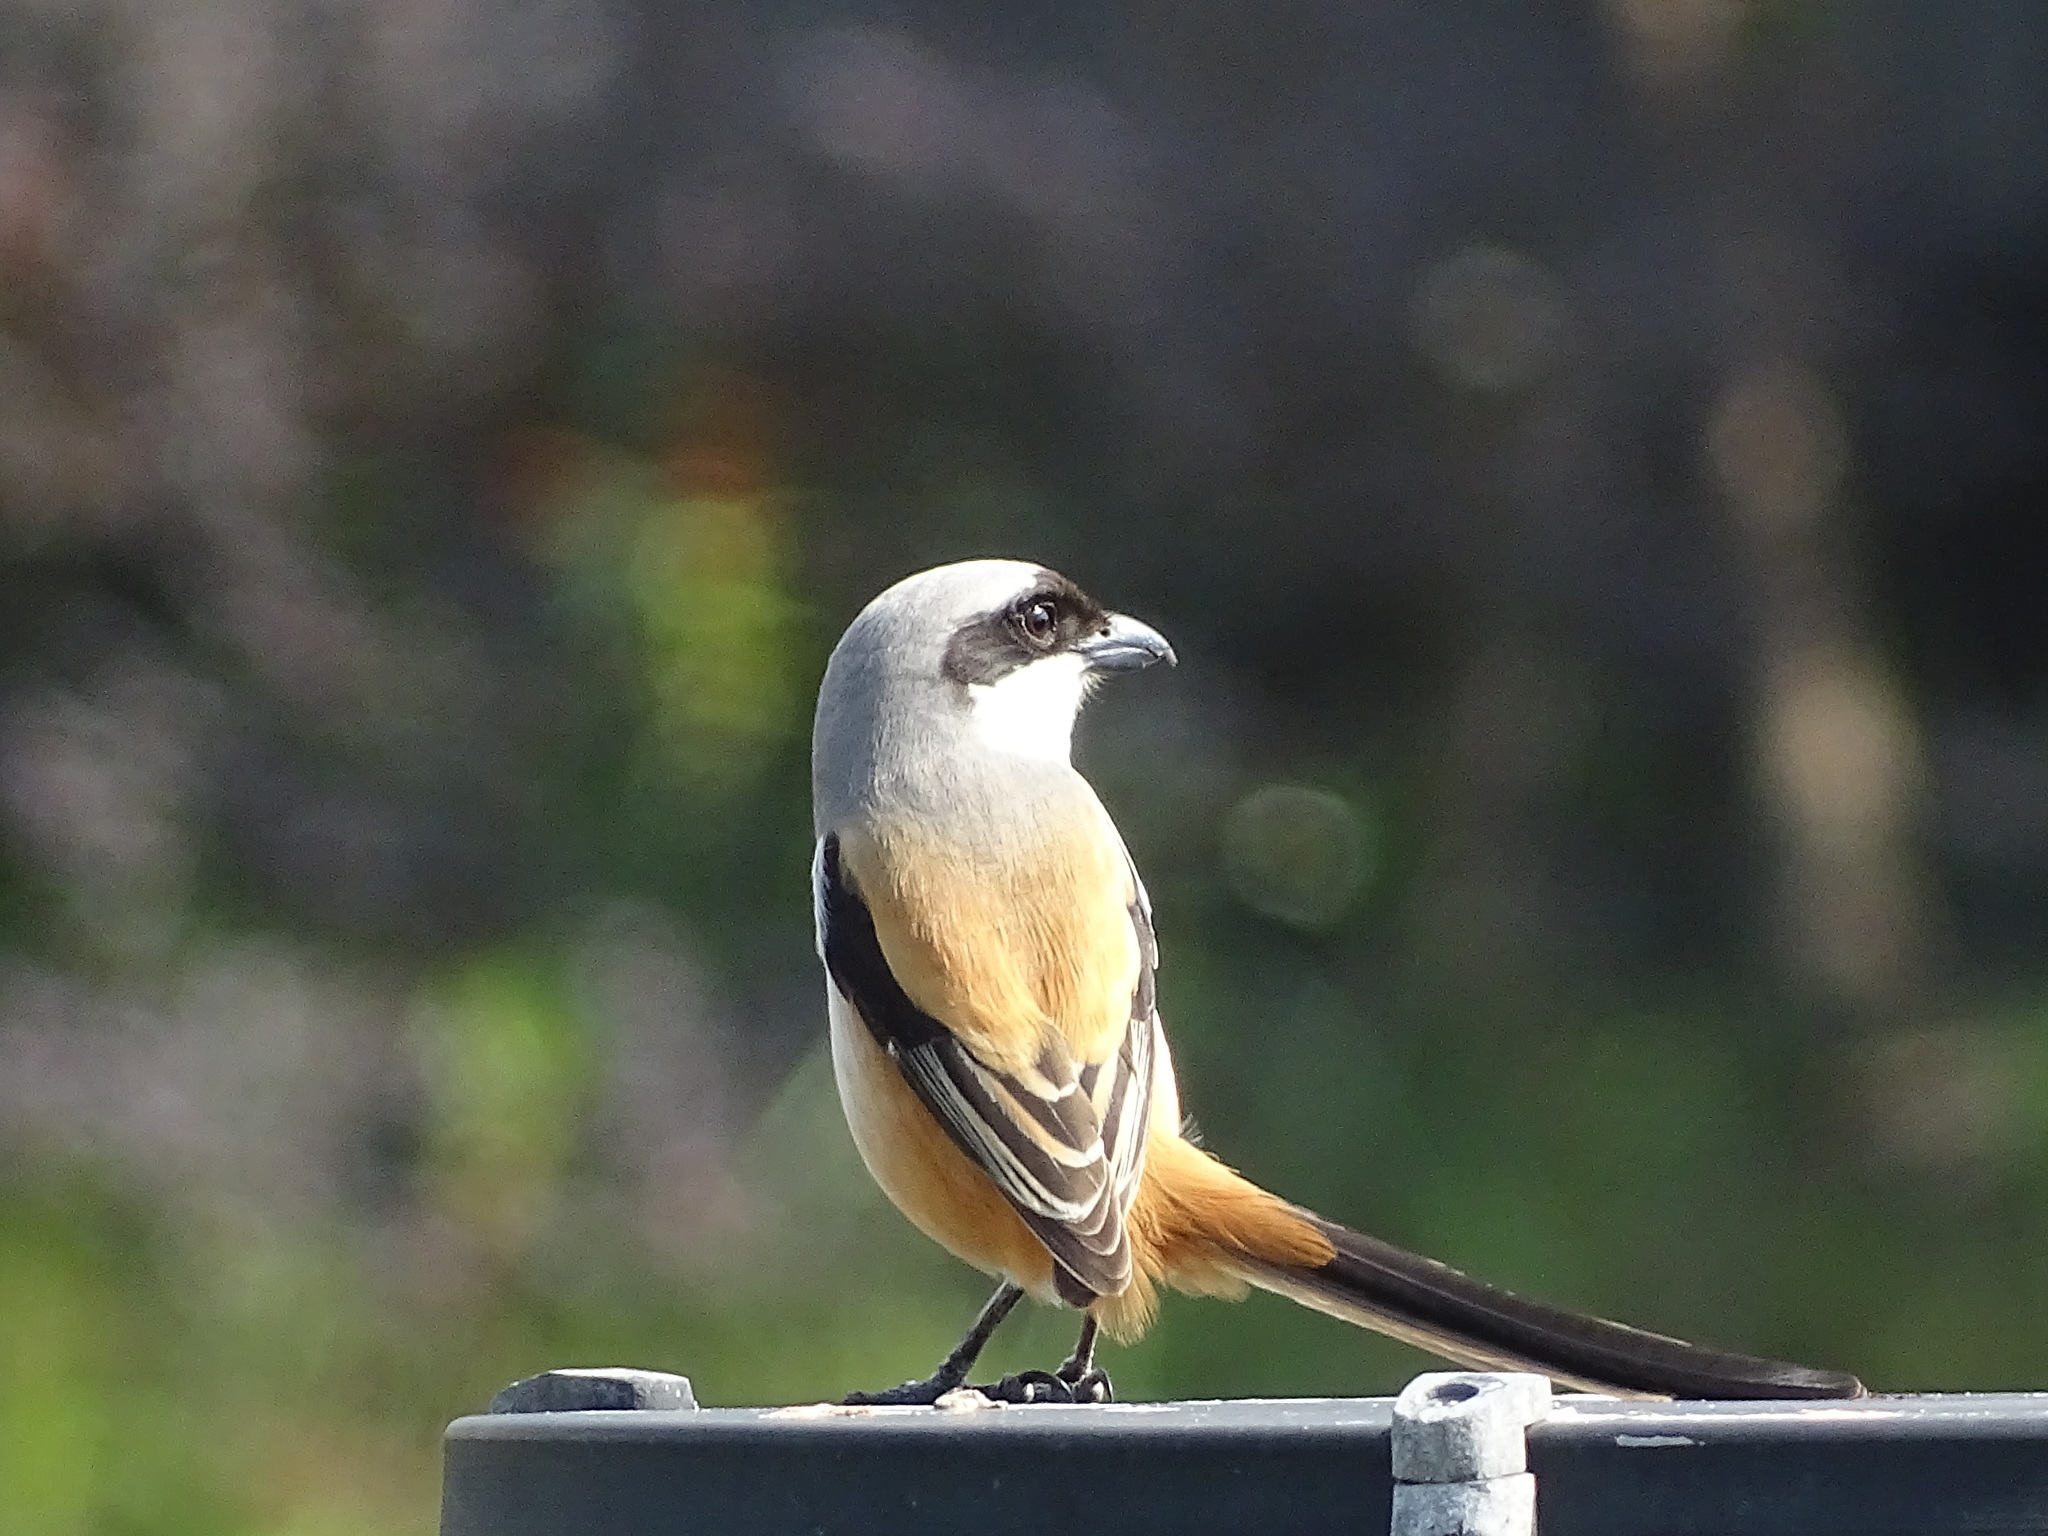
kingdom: Animalia
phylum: Chordata
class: Aves
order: Passeriformes
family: Laniidae
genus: Lanius
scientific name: Lanius schach
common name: Long-tailed shrike
